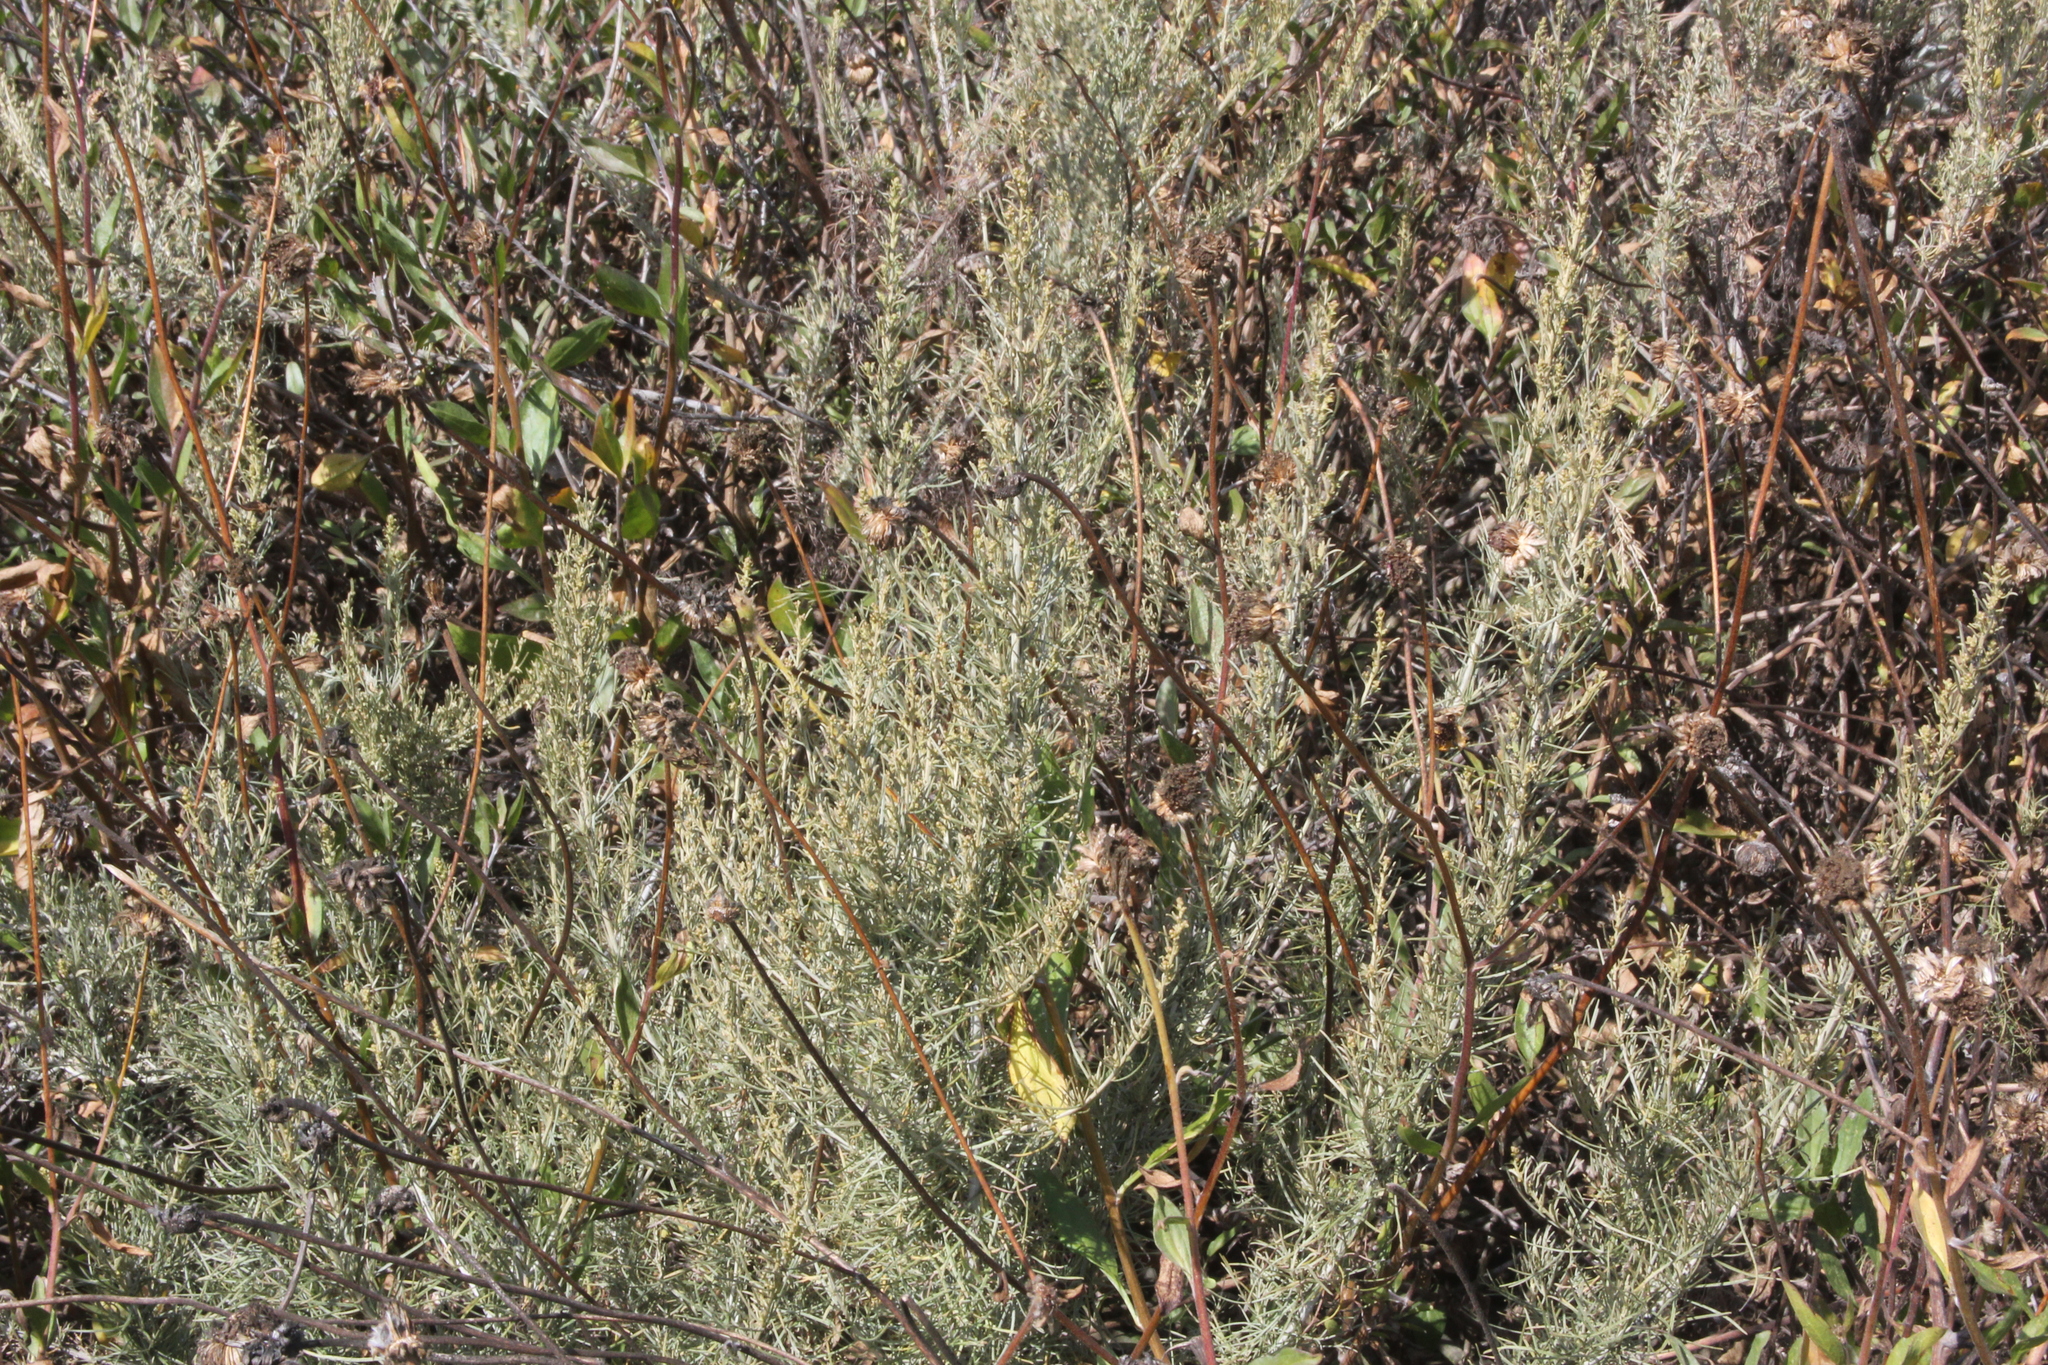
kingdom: Plantae
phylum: Tracheophyta
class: Magnoliopsida
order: Asterales
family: Asteraceae
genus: Artemisia
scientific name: Artemisia californica
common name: California sagebrush
